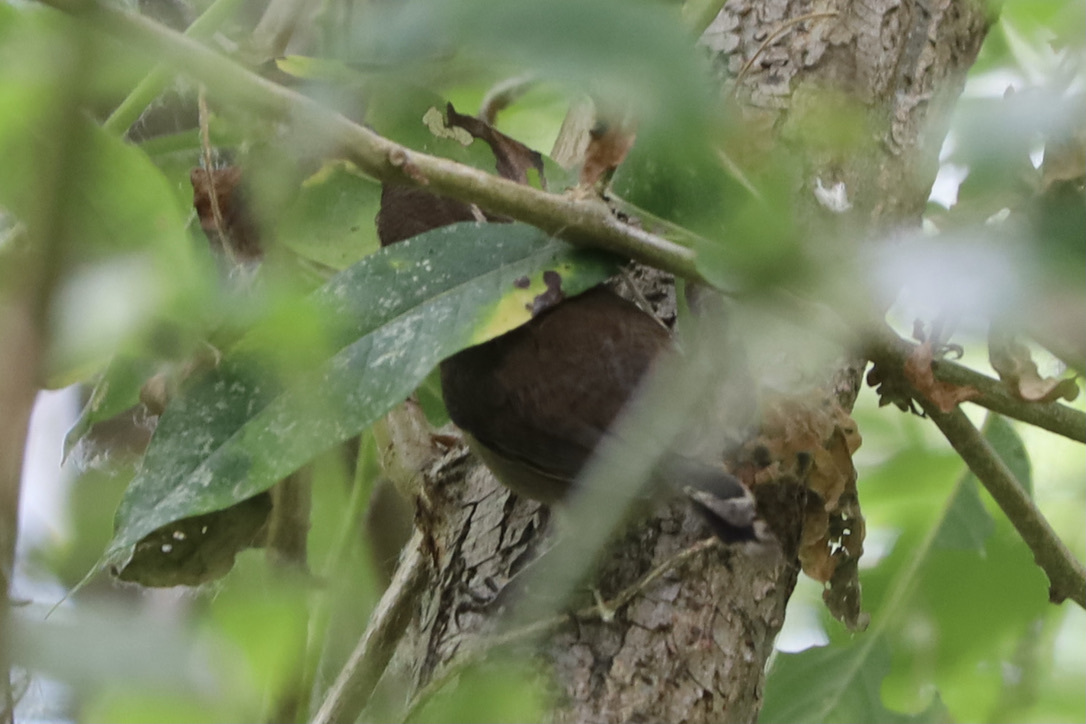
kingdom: Animalia
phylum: Chordata
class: Aves
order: Passeriformes
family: Troglodytidae
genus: Thryomanes
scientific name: Thryomanes bewickii
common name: Bewick's wren
